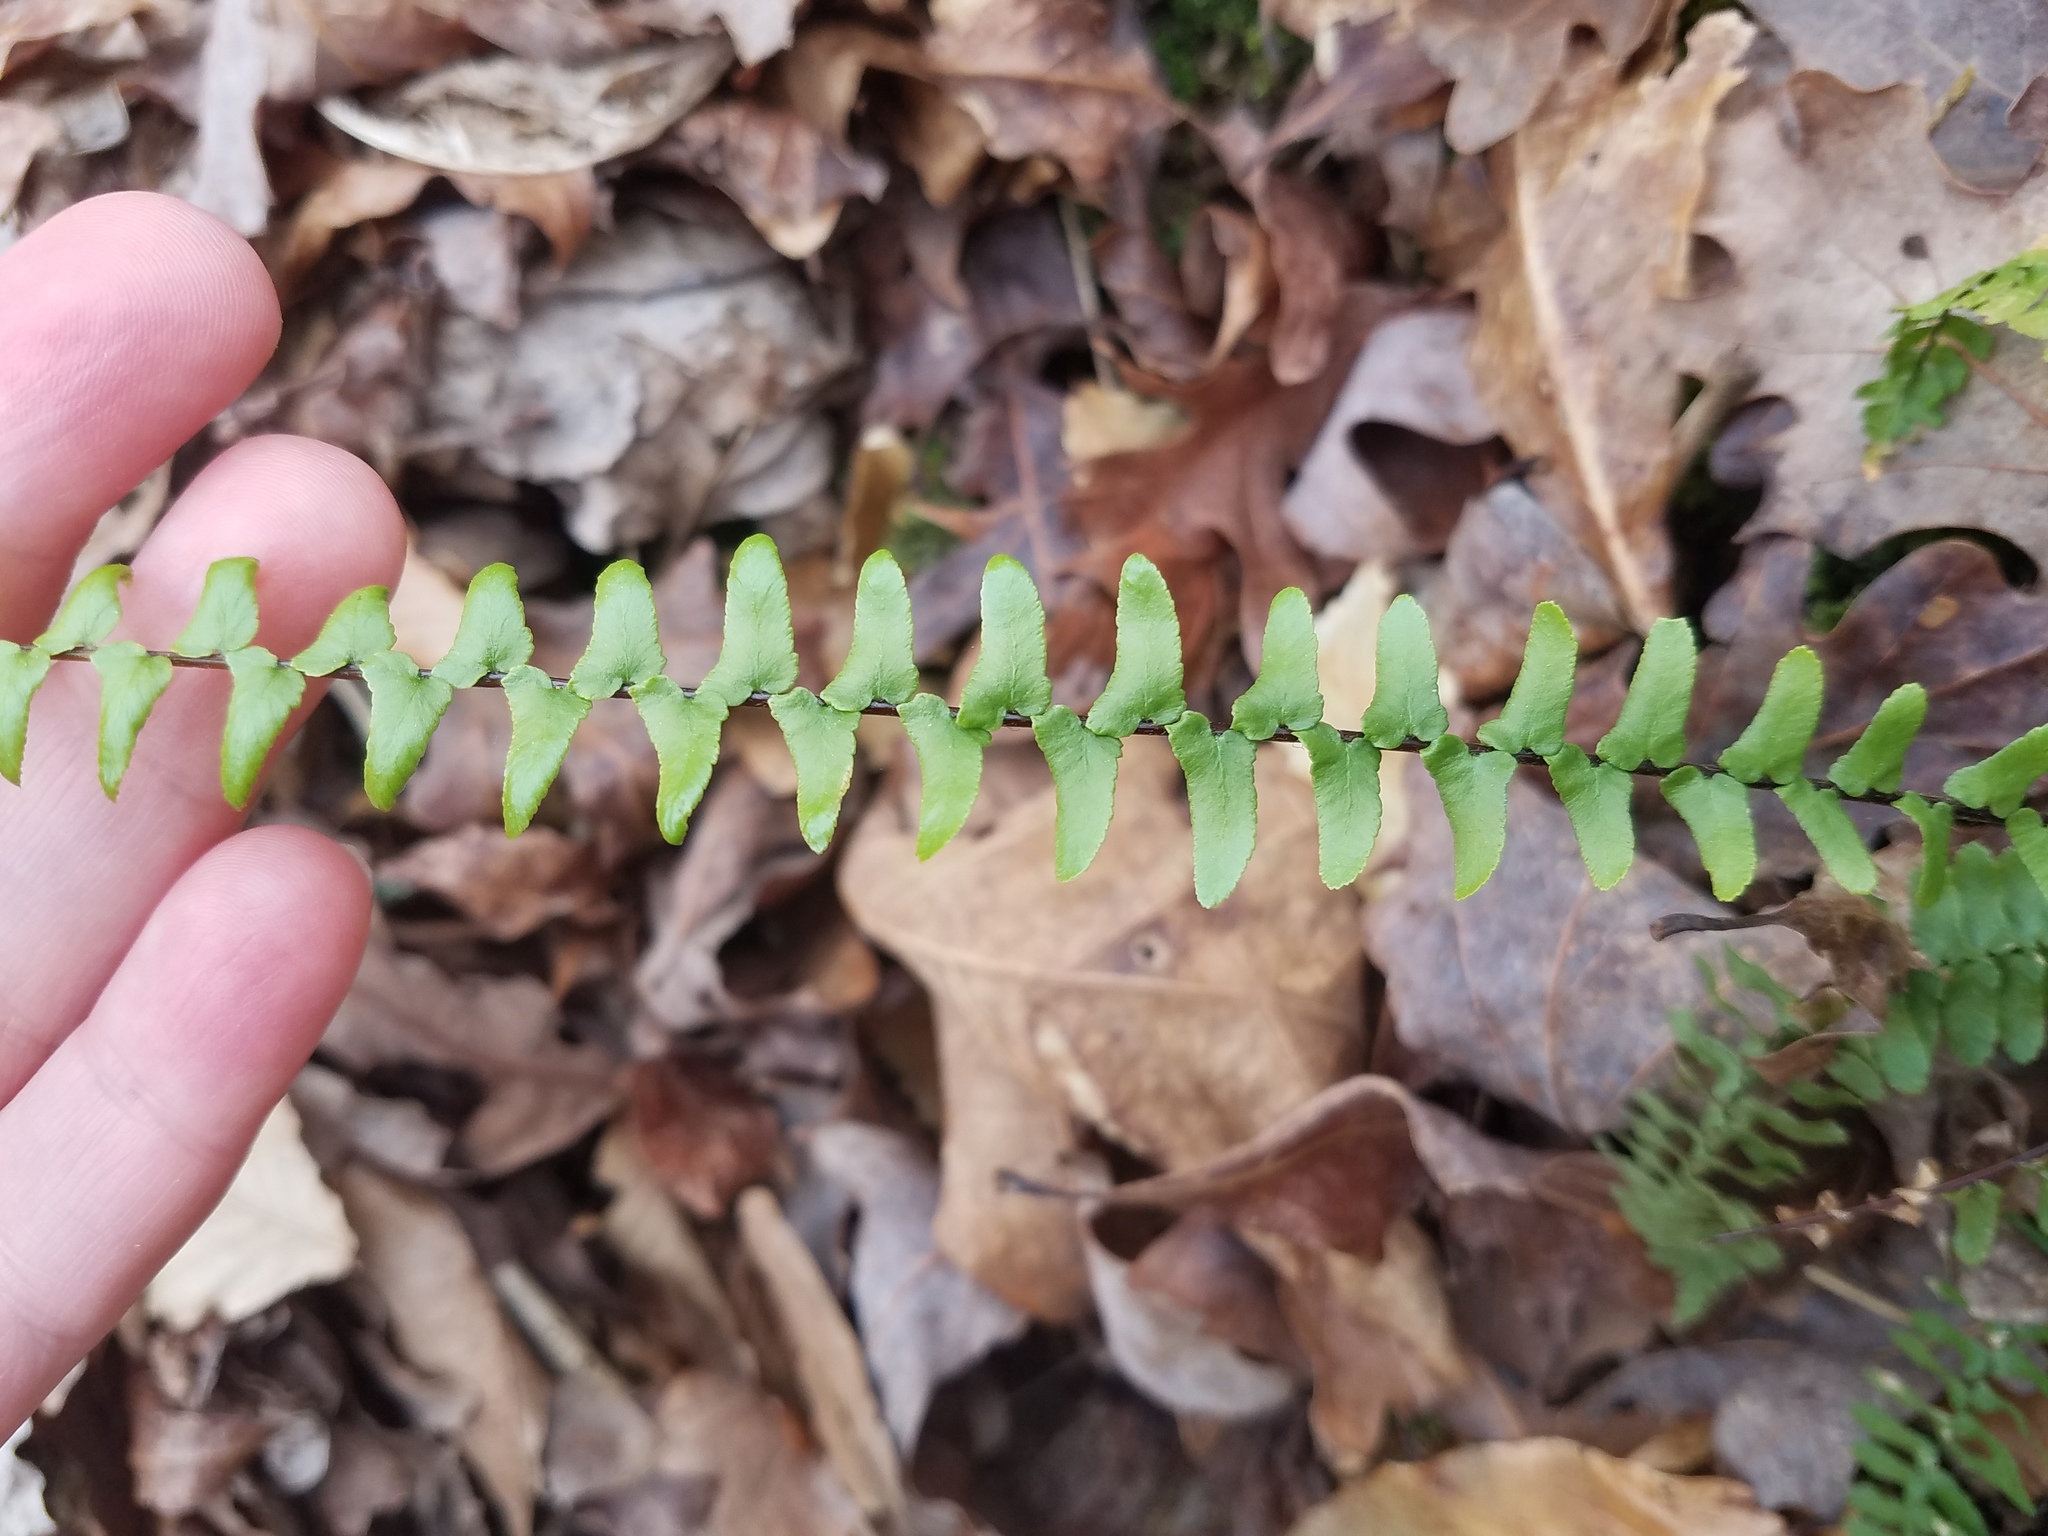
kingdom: Plantae
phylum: Tracheophyta
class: Polypodiopsida
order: Polypodiales
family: Aspleniaceae
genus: Asplenium
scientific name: Asplenium platyneuron
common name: Ebony spleenwort
